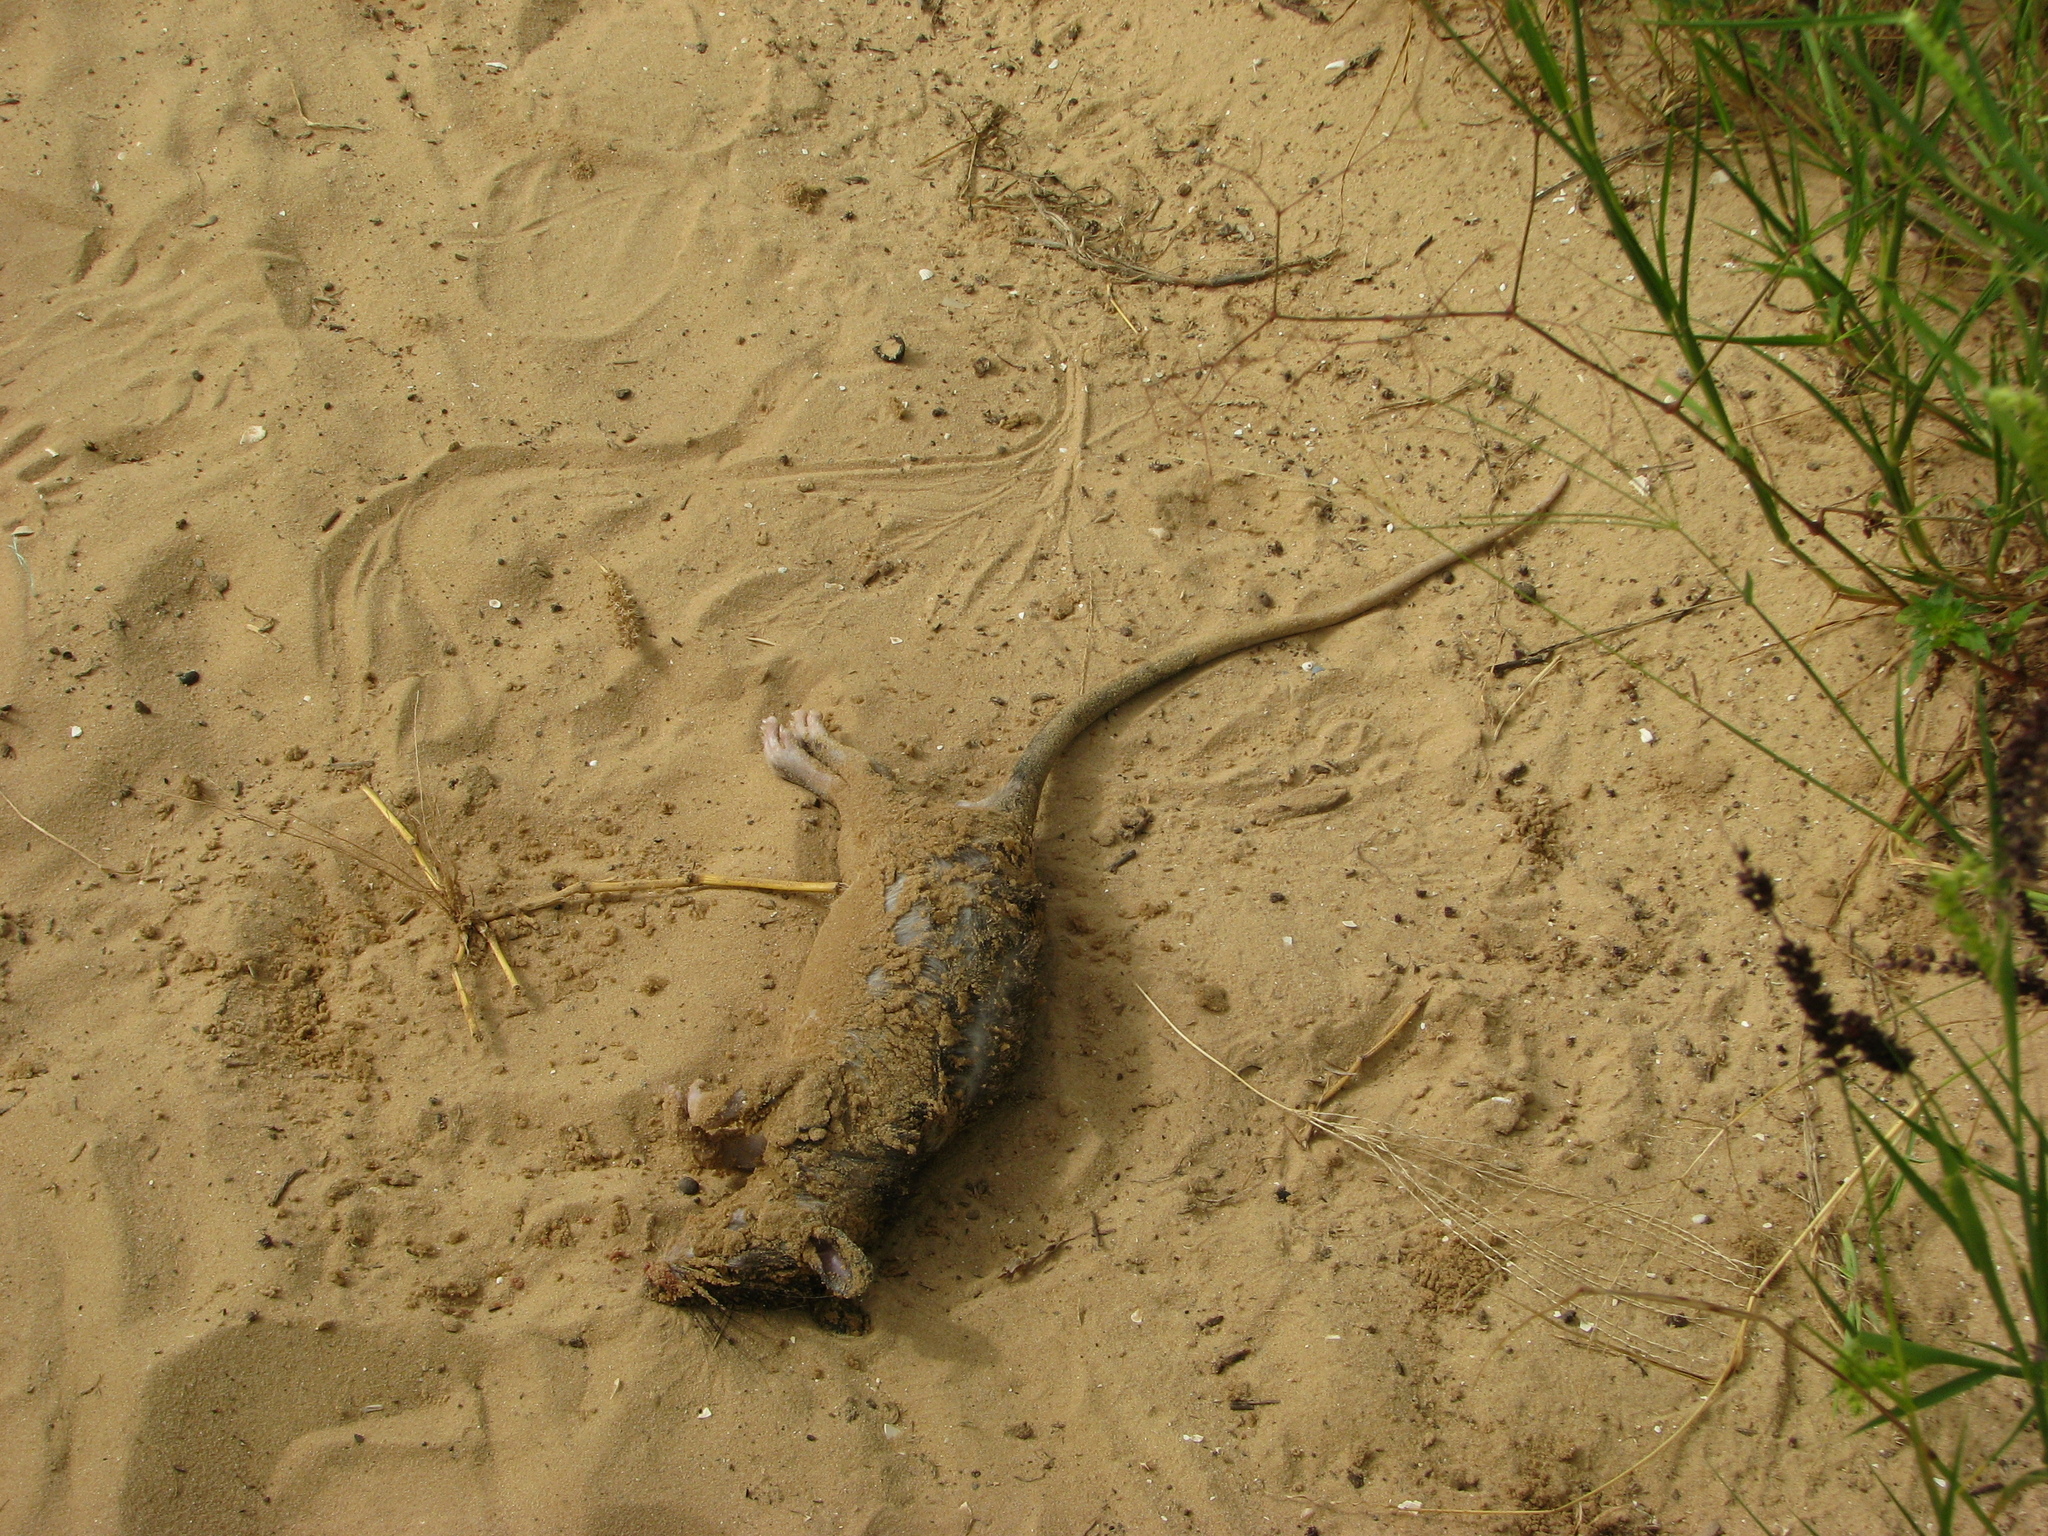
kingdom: Animalia
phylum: Chordata
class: Mammalia
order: Rodentia
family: Nesomyidae
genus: Cricetomys
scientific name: Cricetomys gambianus
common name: Northern giant pouched rat
